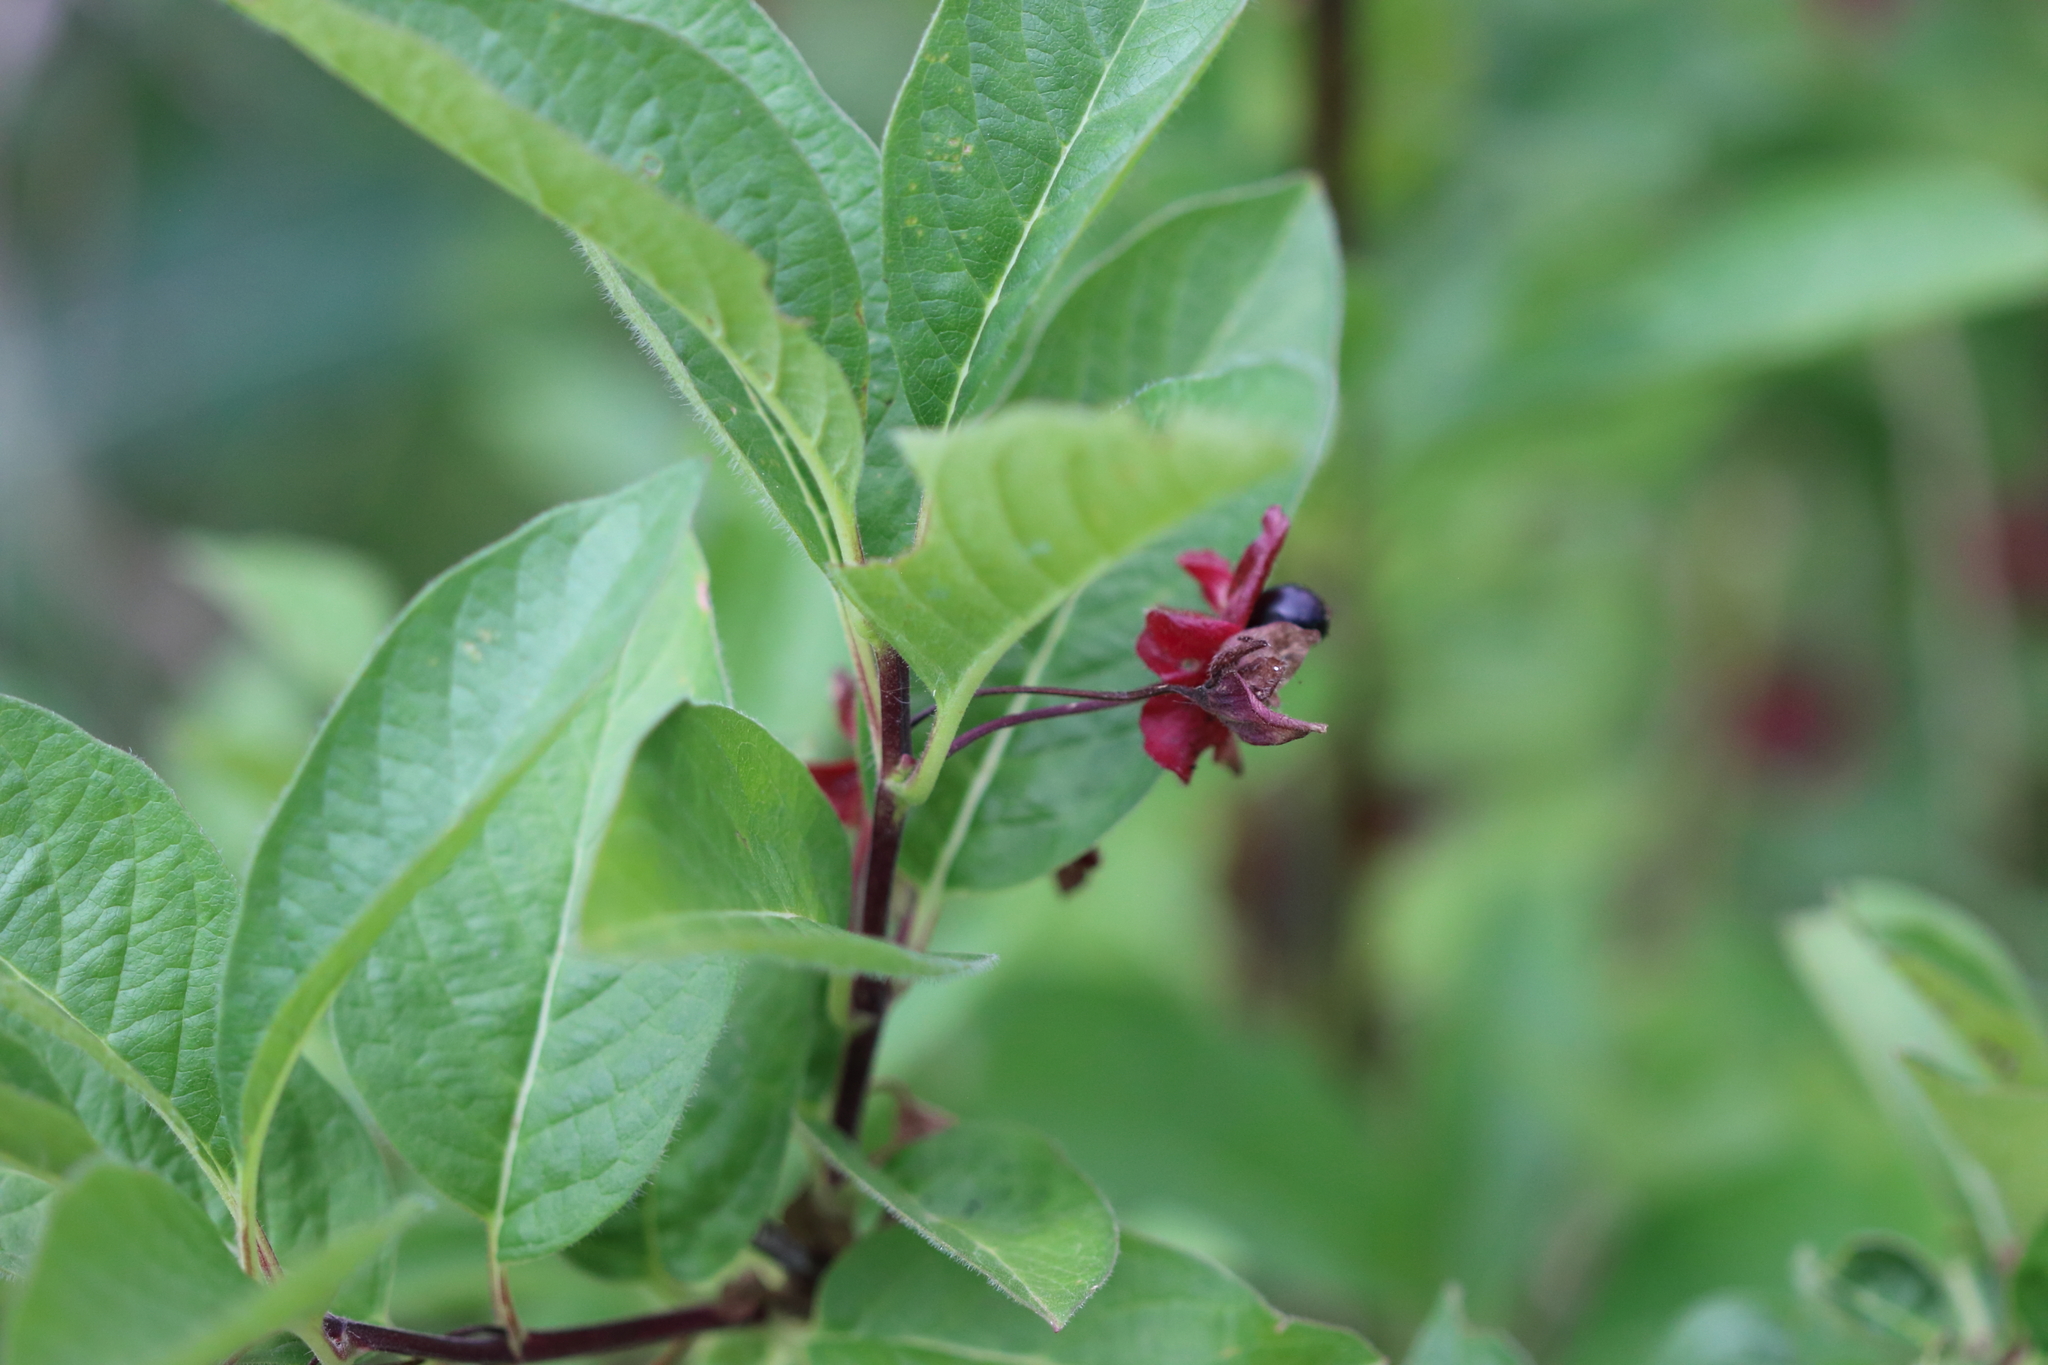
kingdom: Plantae
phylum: Tracheophyta
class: Magnoliopsida
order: Dipsacales
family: Caprifoliaceae
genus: Lonicera
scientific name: Lonicera involucrata
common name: Californian honeysuckle
